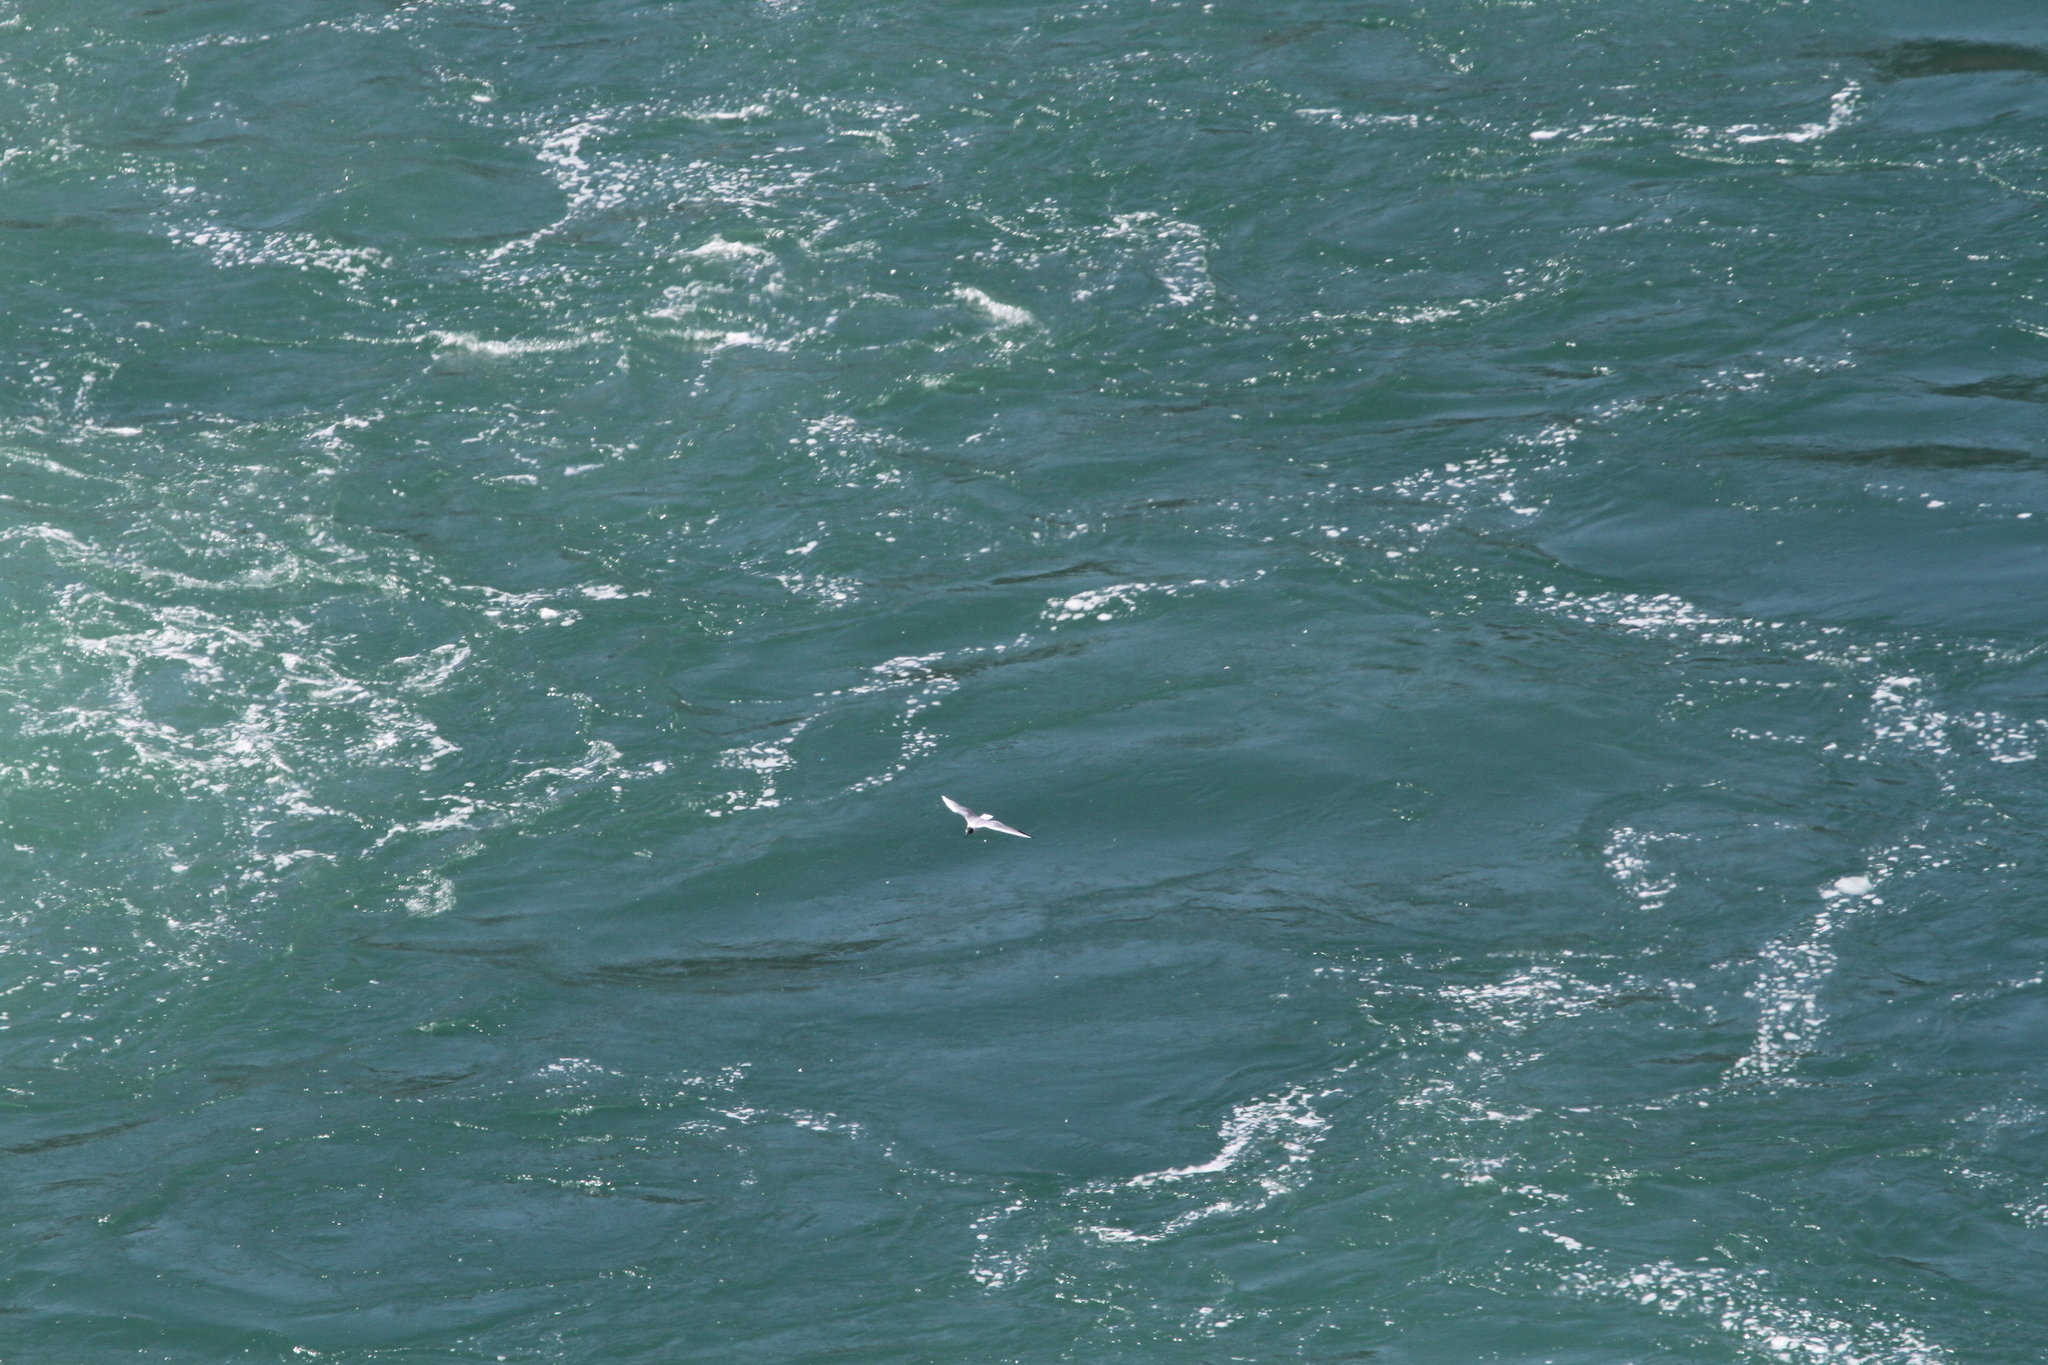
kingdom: Animalia
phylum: Chordata
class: Aves
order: Charadriiformes
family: Laridae
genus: Chroicocephalus
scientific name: Chroicocephalus philadelphia
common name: Bonaparte's gull
